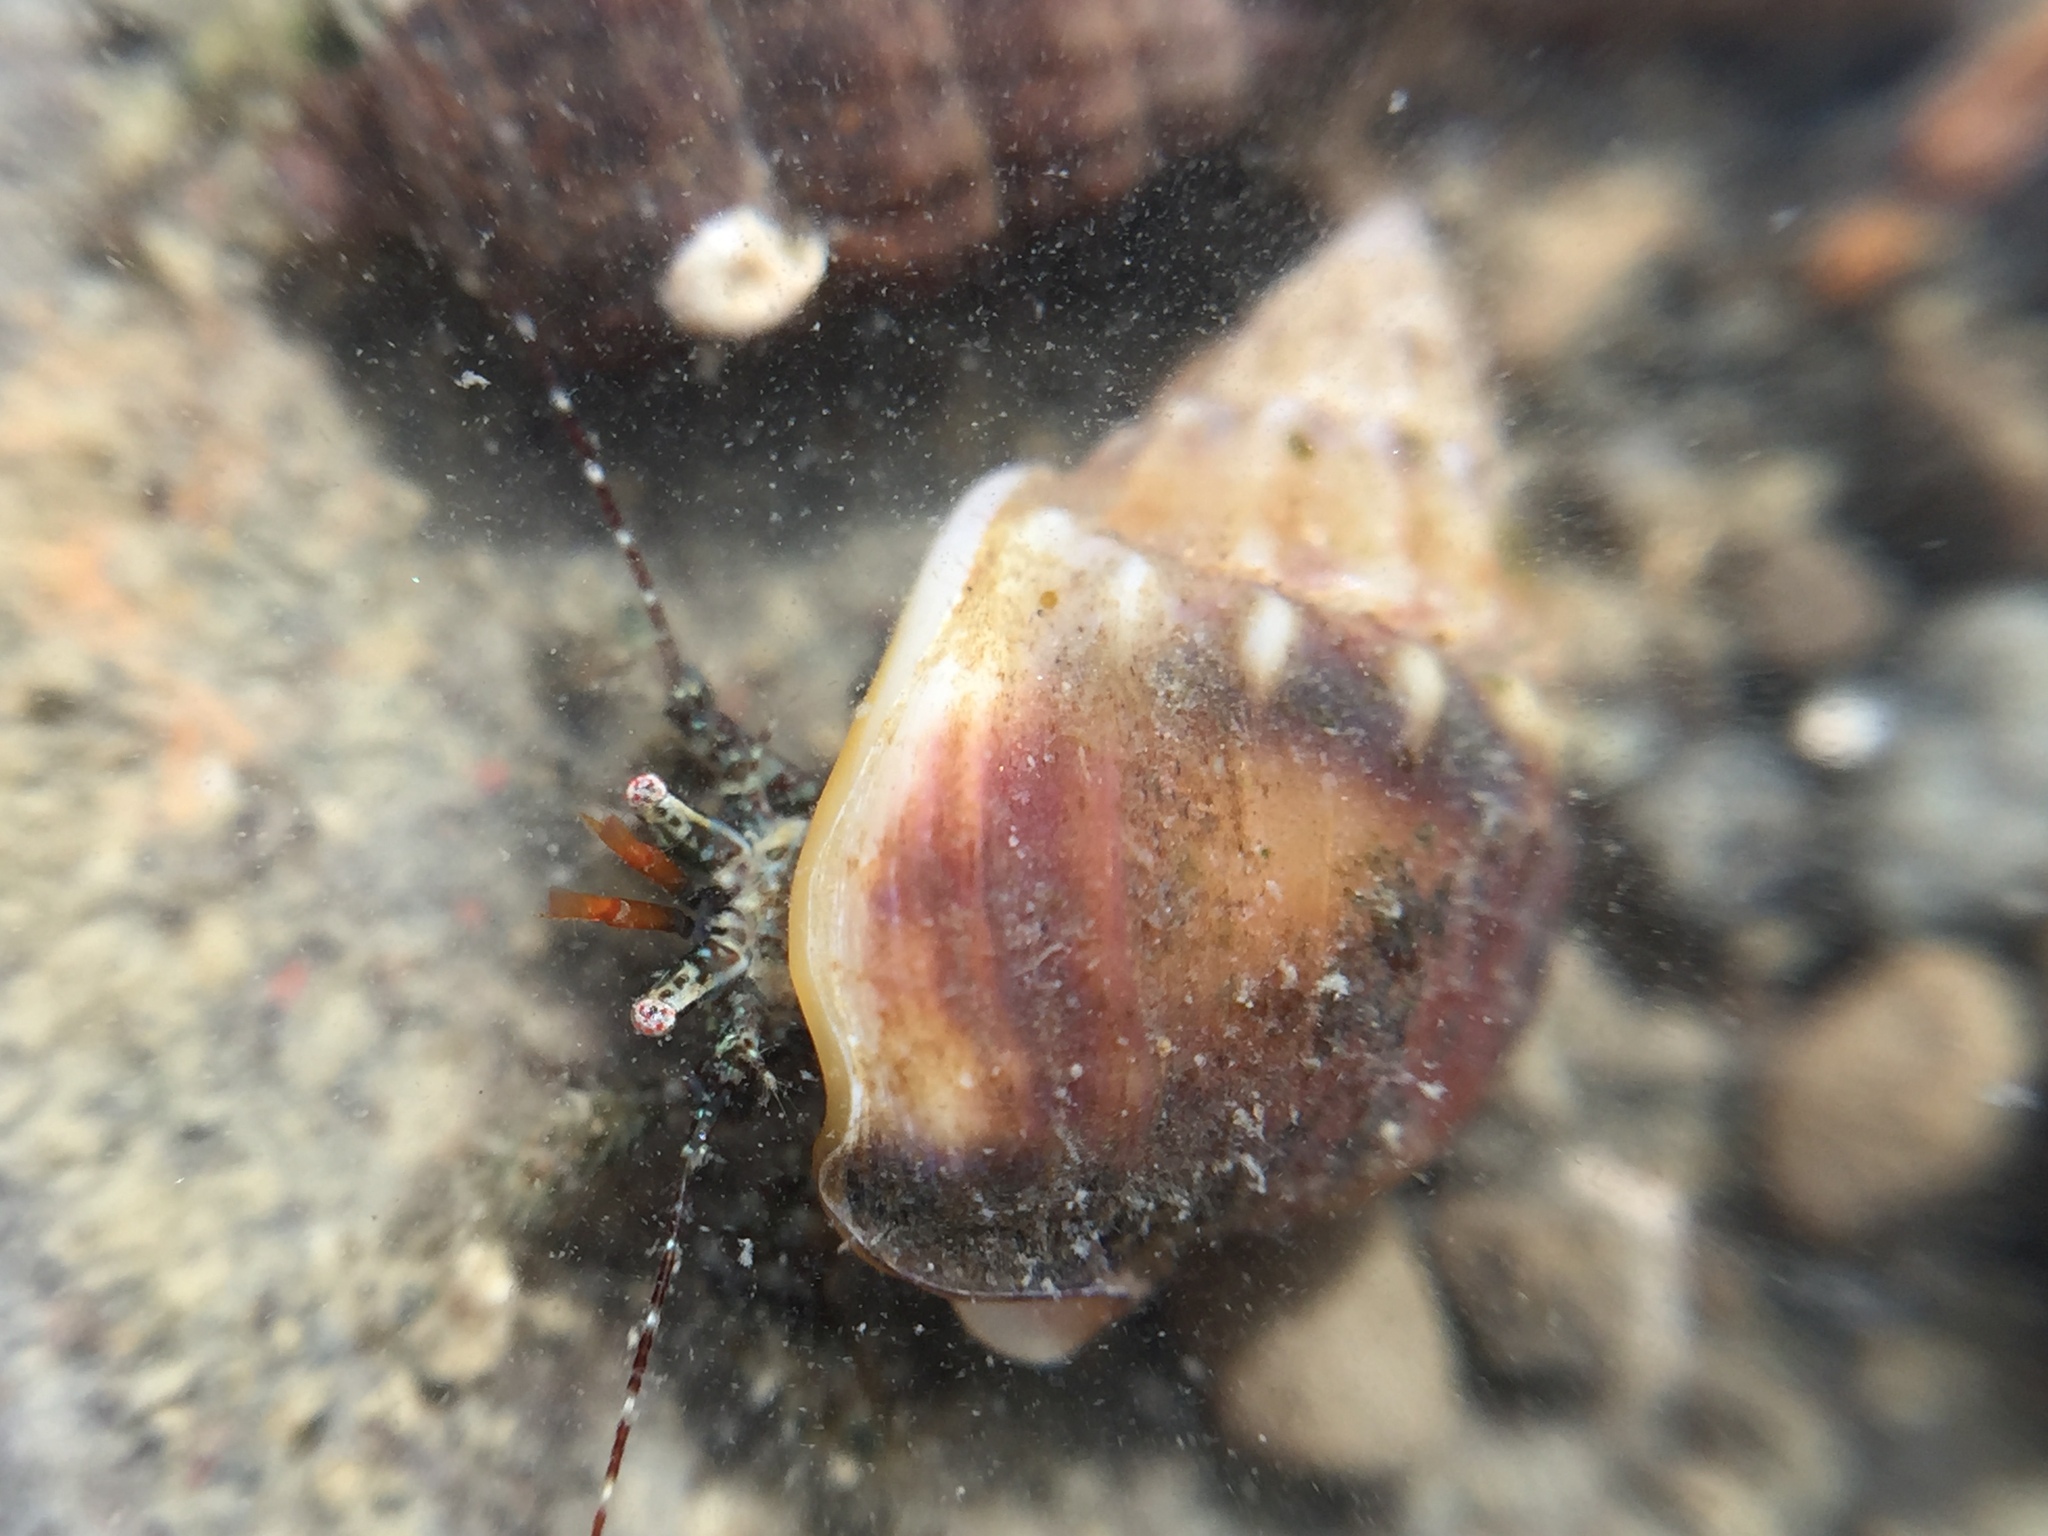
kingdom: Animalia
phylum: Arthropoda
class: Malacostraca
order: Decapoda
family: Paguridae
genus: Pagurus
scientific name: Pagurus traversi
